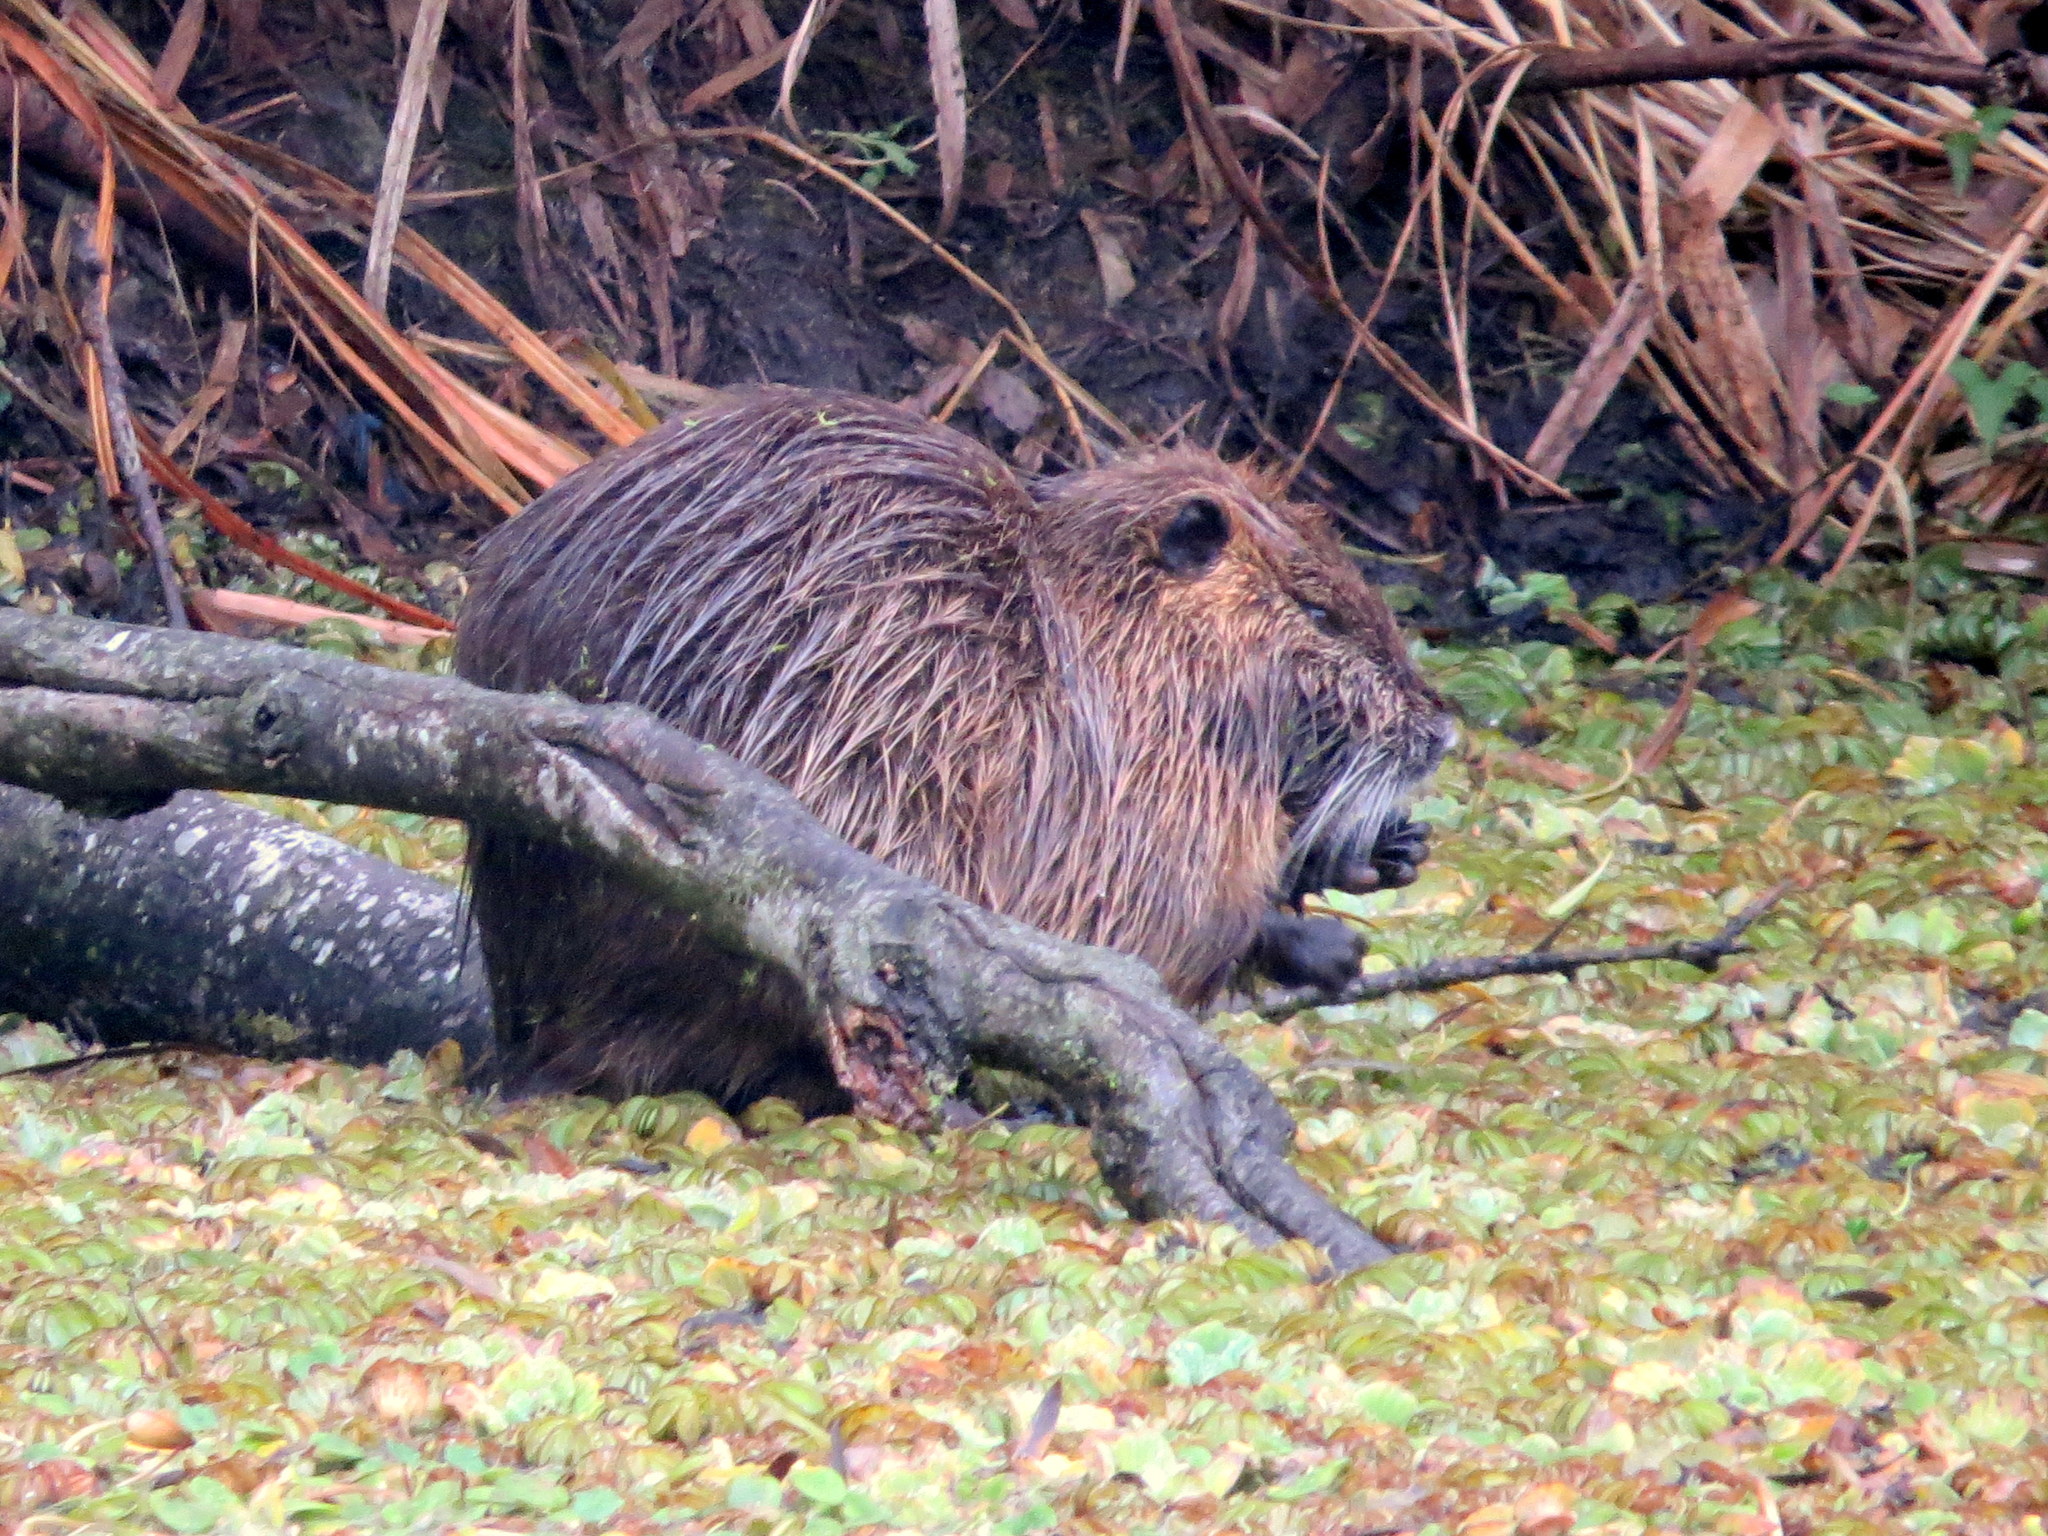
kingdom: Animalia
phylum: Chordata
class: Mammalia
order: Rodentia
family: Myocastoridae
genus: Myocastor
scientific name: Myocastor coypus
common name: Coypu
